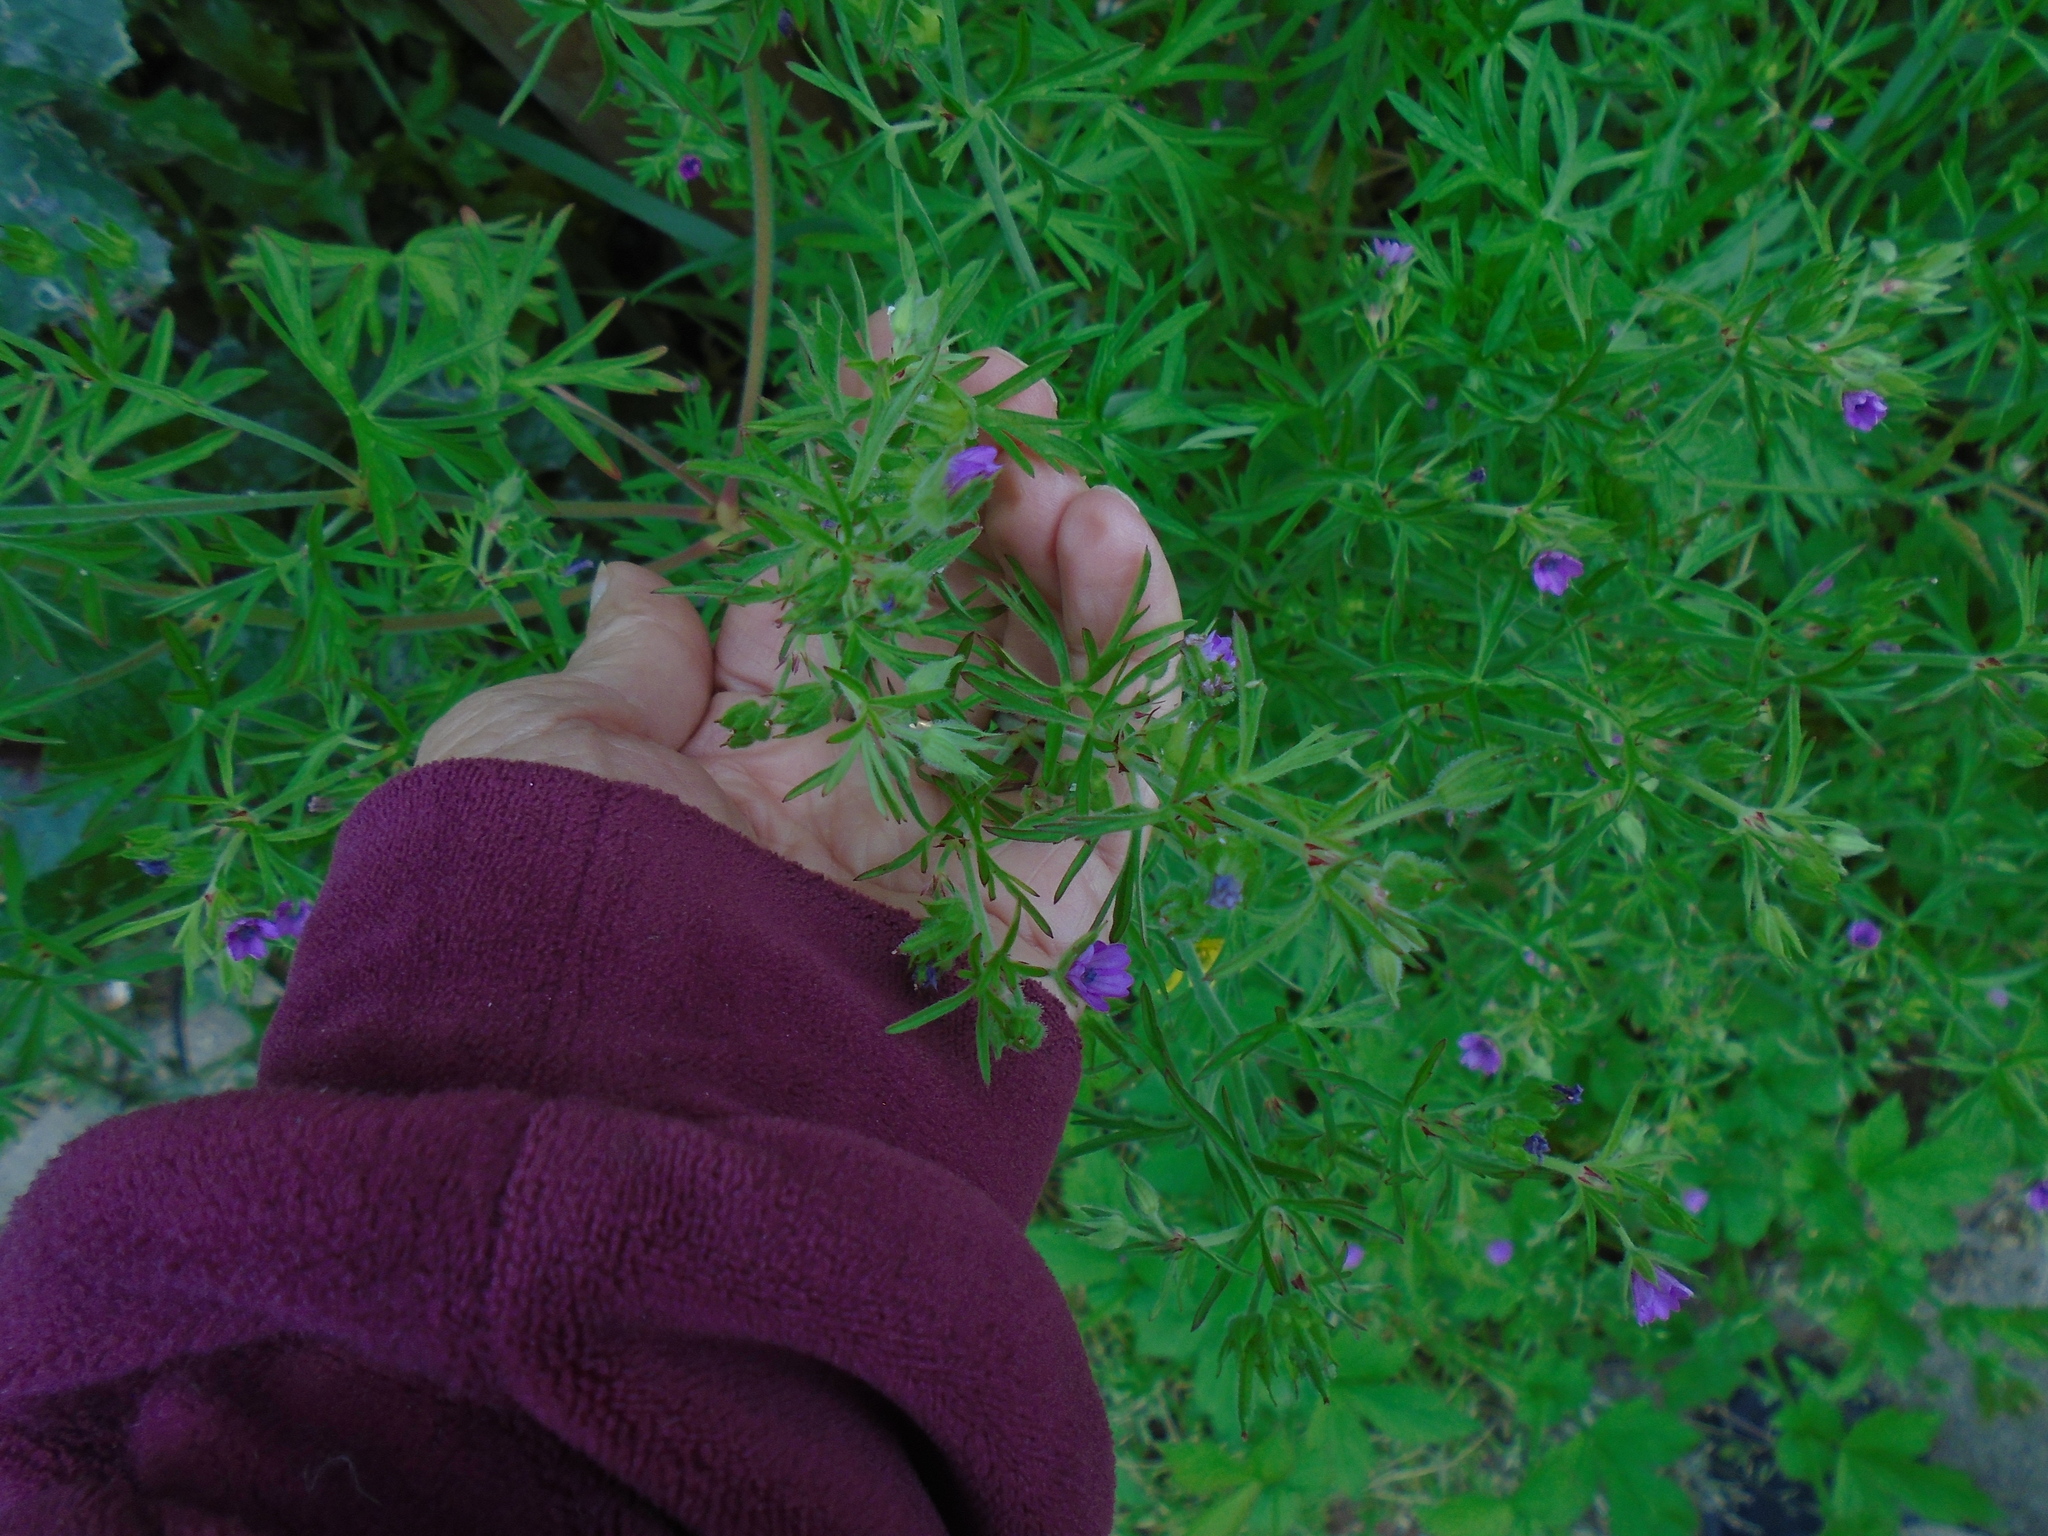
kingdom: Plantae
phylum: Tracheophyta
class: Magnoliopsida
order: Geraniales
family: Geraniaceae
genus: Geranium
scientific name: Geranium dissectum
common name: Cut-leaved crane's-bill
